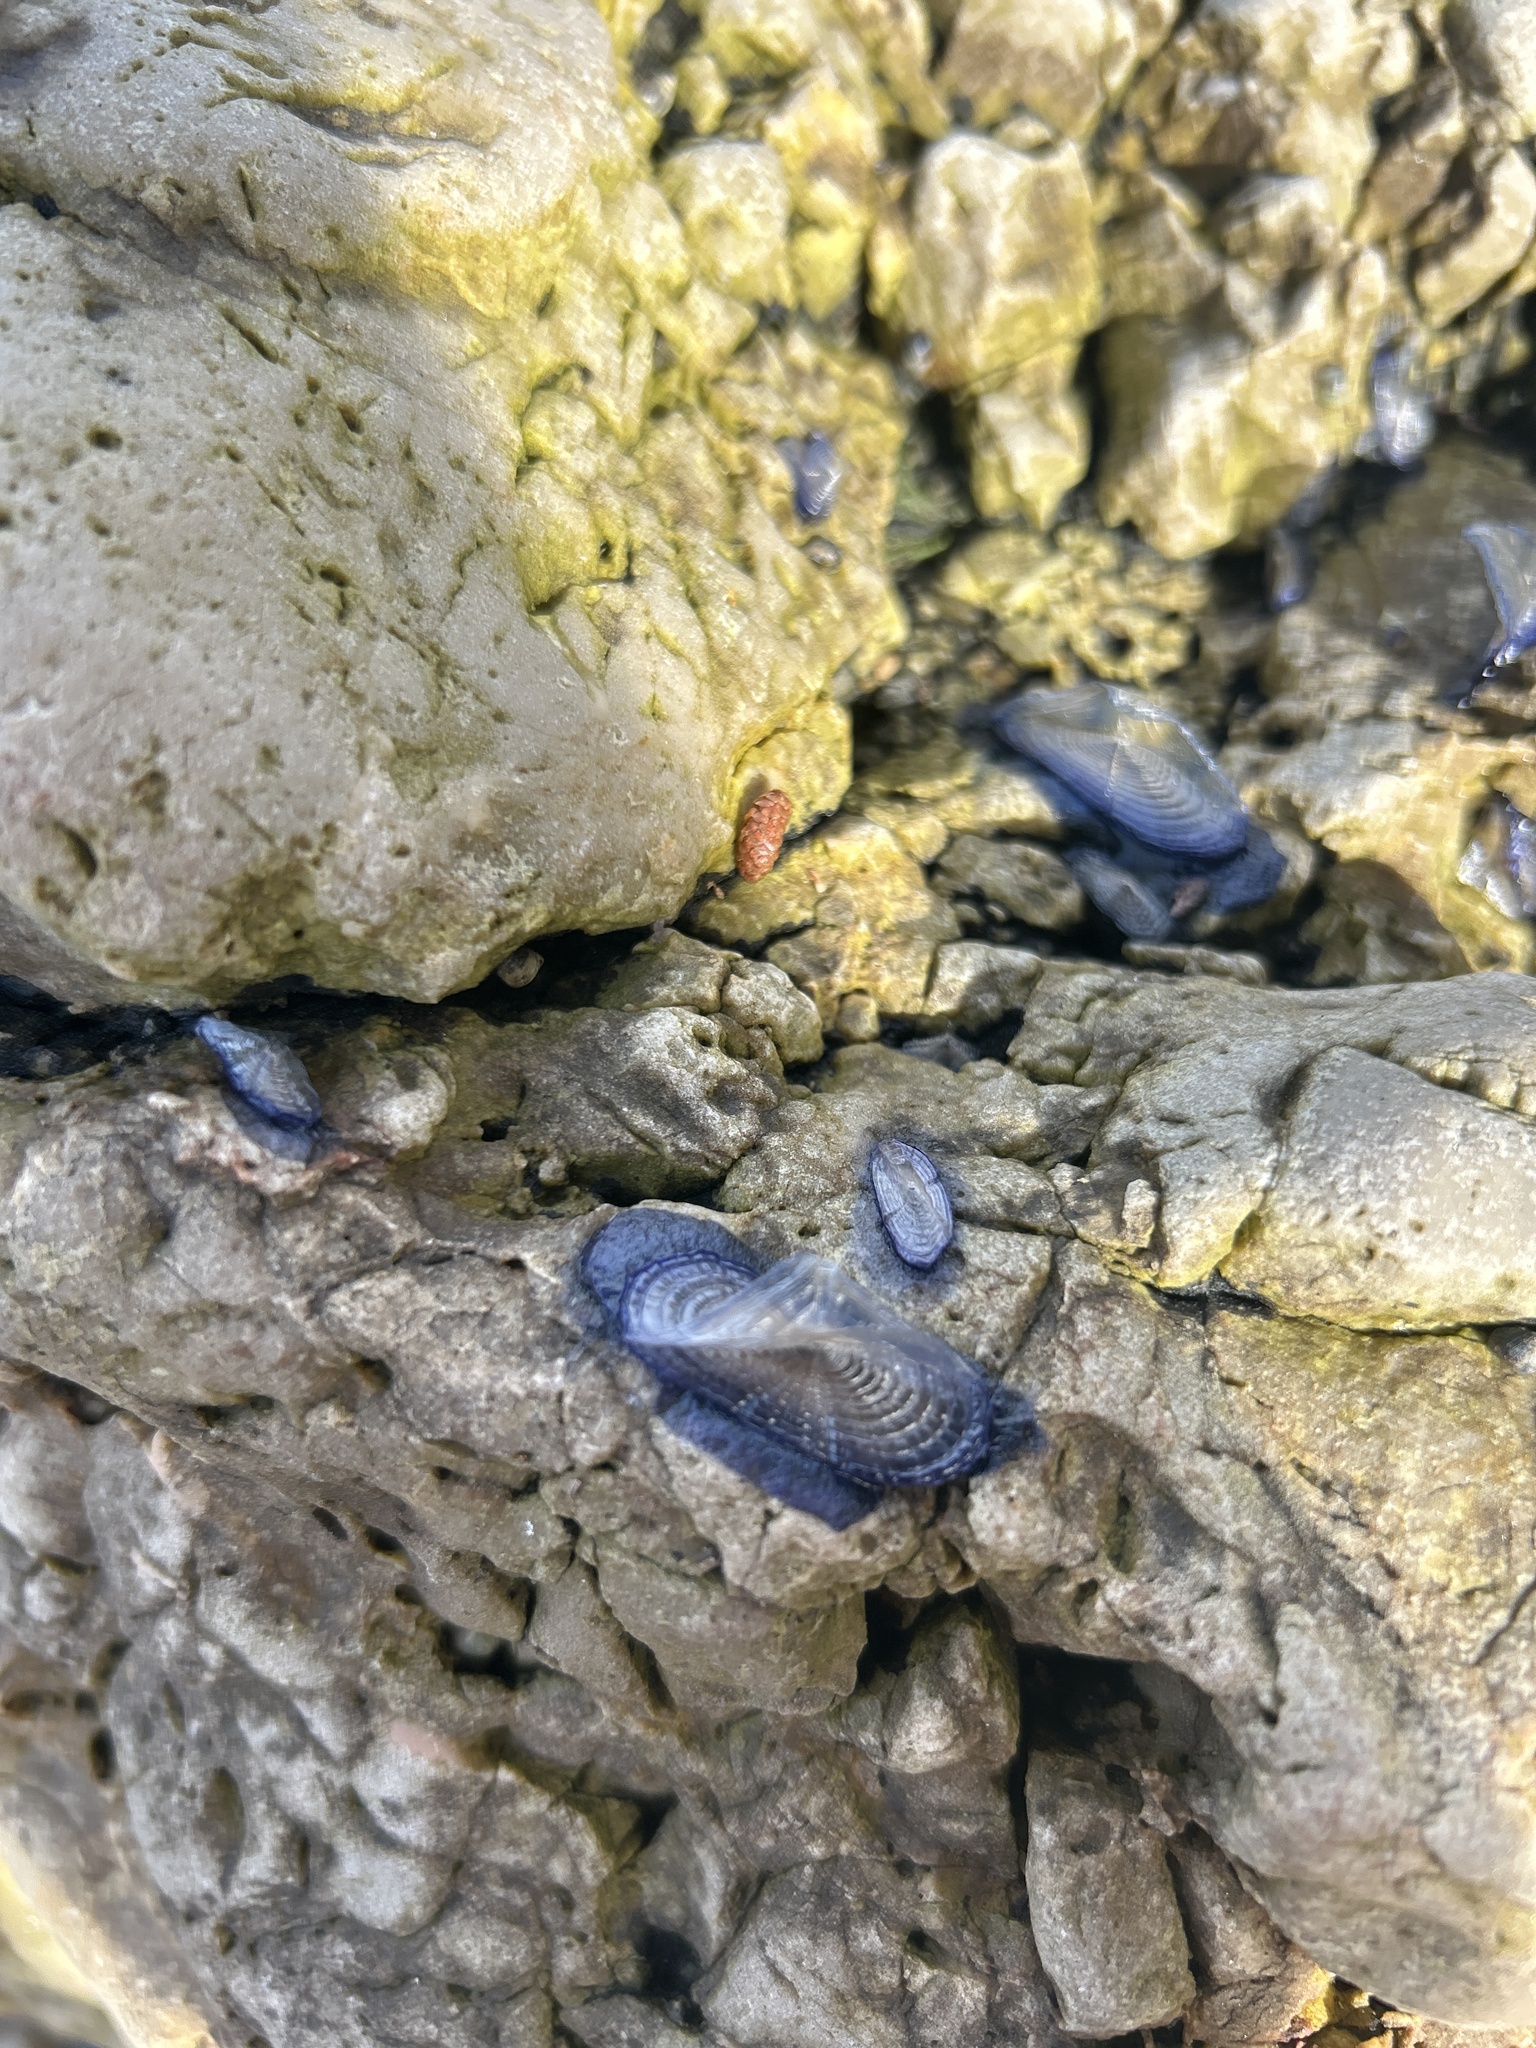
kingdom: Animalia
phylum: Cnidaria
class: Hydrozoa
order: Anthoathecata
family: Porpitidae
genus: Velella
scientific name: Velella velella
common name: By-the-wind-sailor
